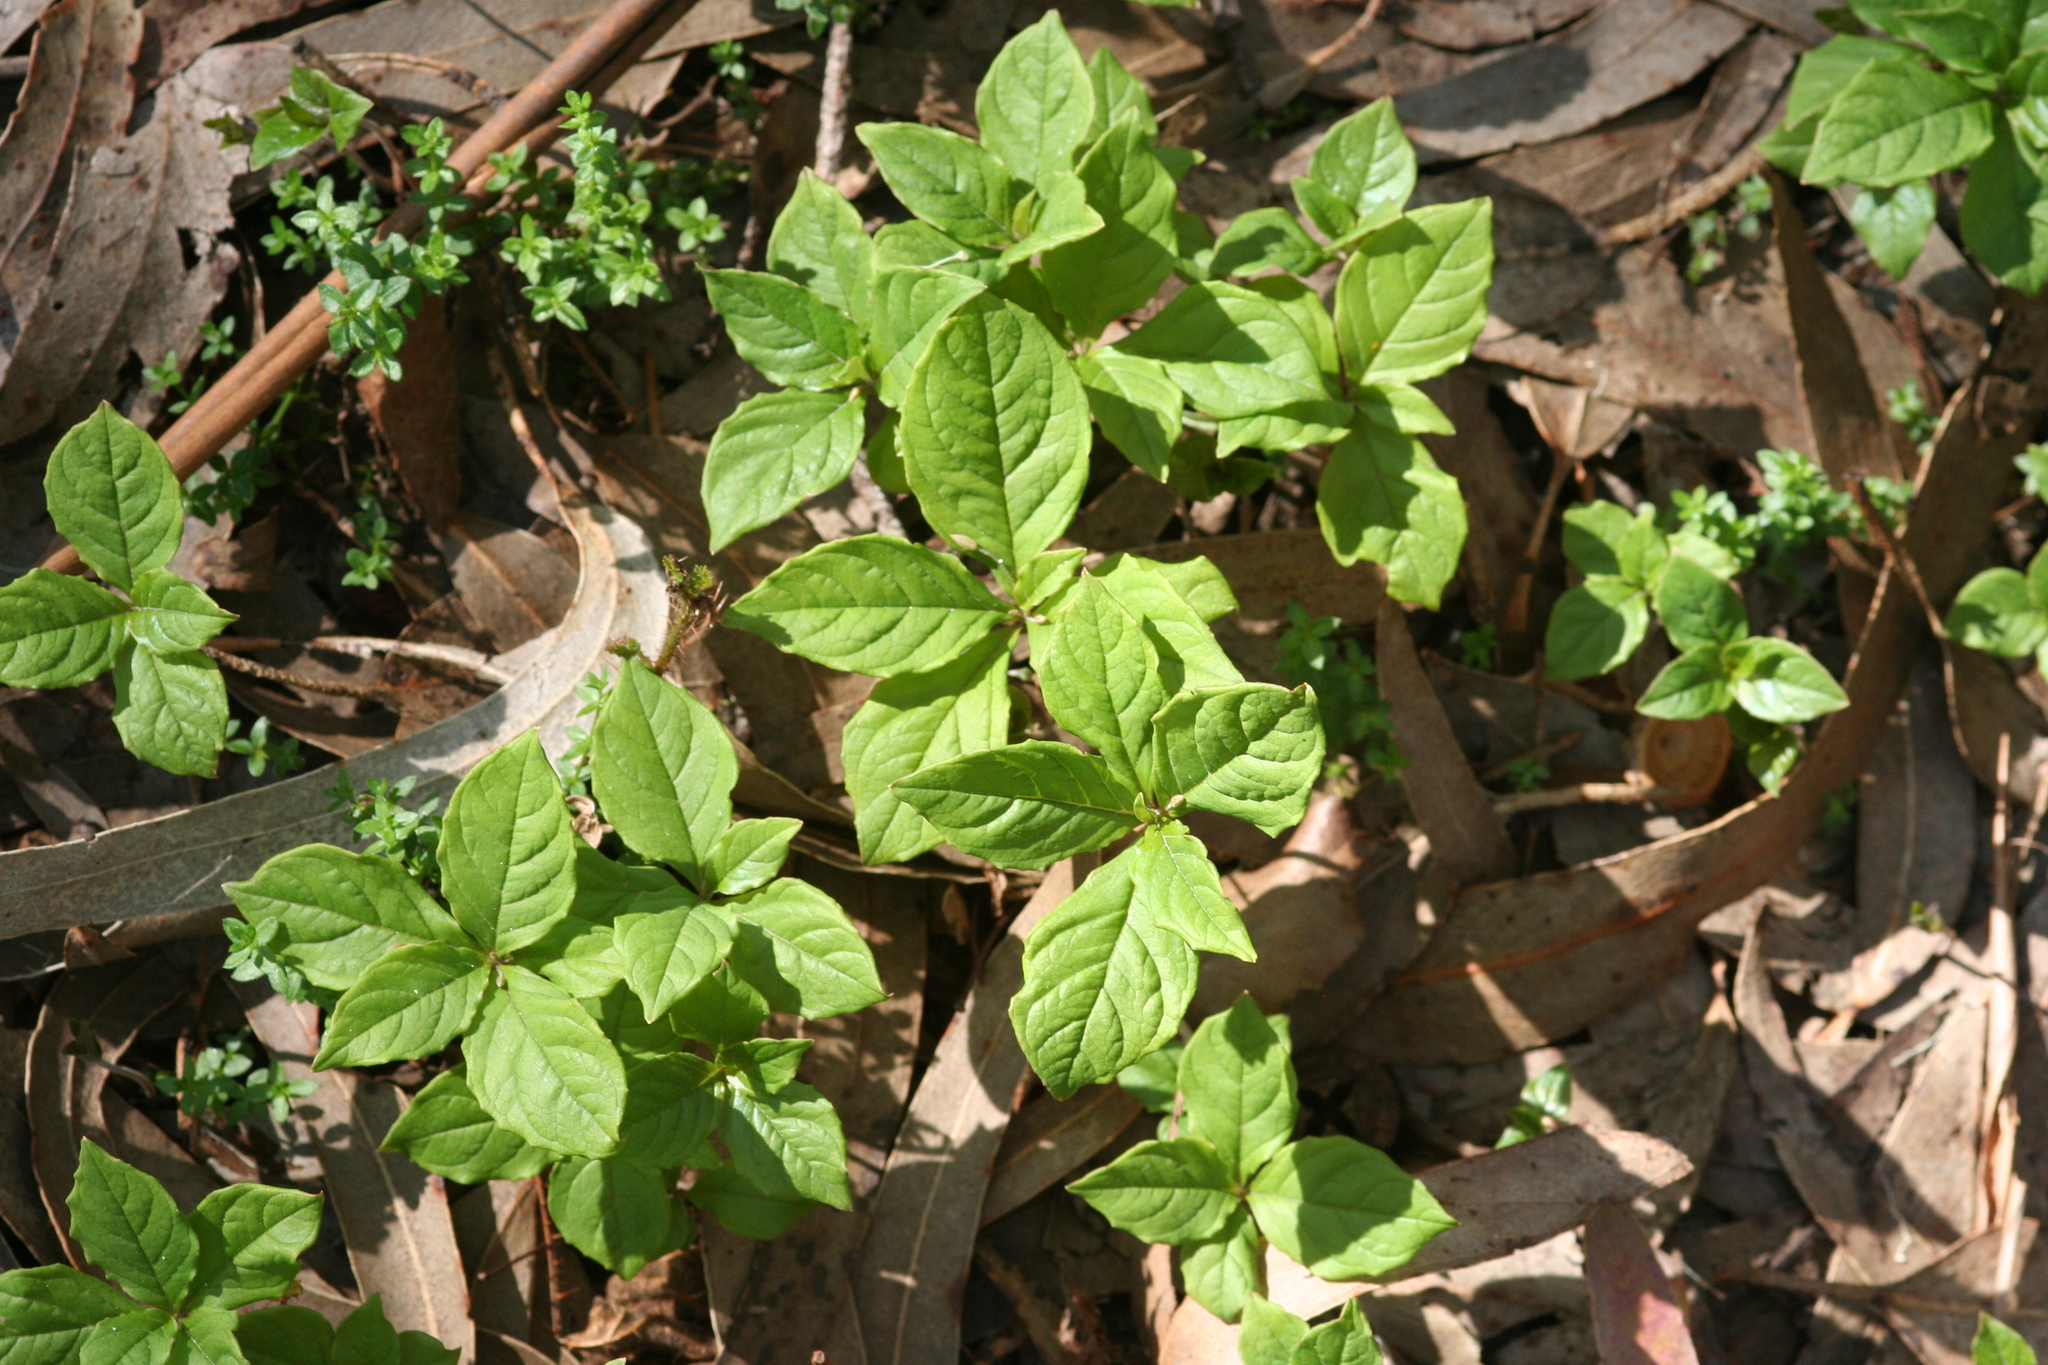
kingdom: Plantae
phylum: Tracheophyta
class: Magnoliopsida
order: Ericales
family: Primulaceae
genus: Lysimachia
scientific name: Lysimachia latifolia
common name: Pacific starflower
